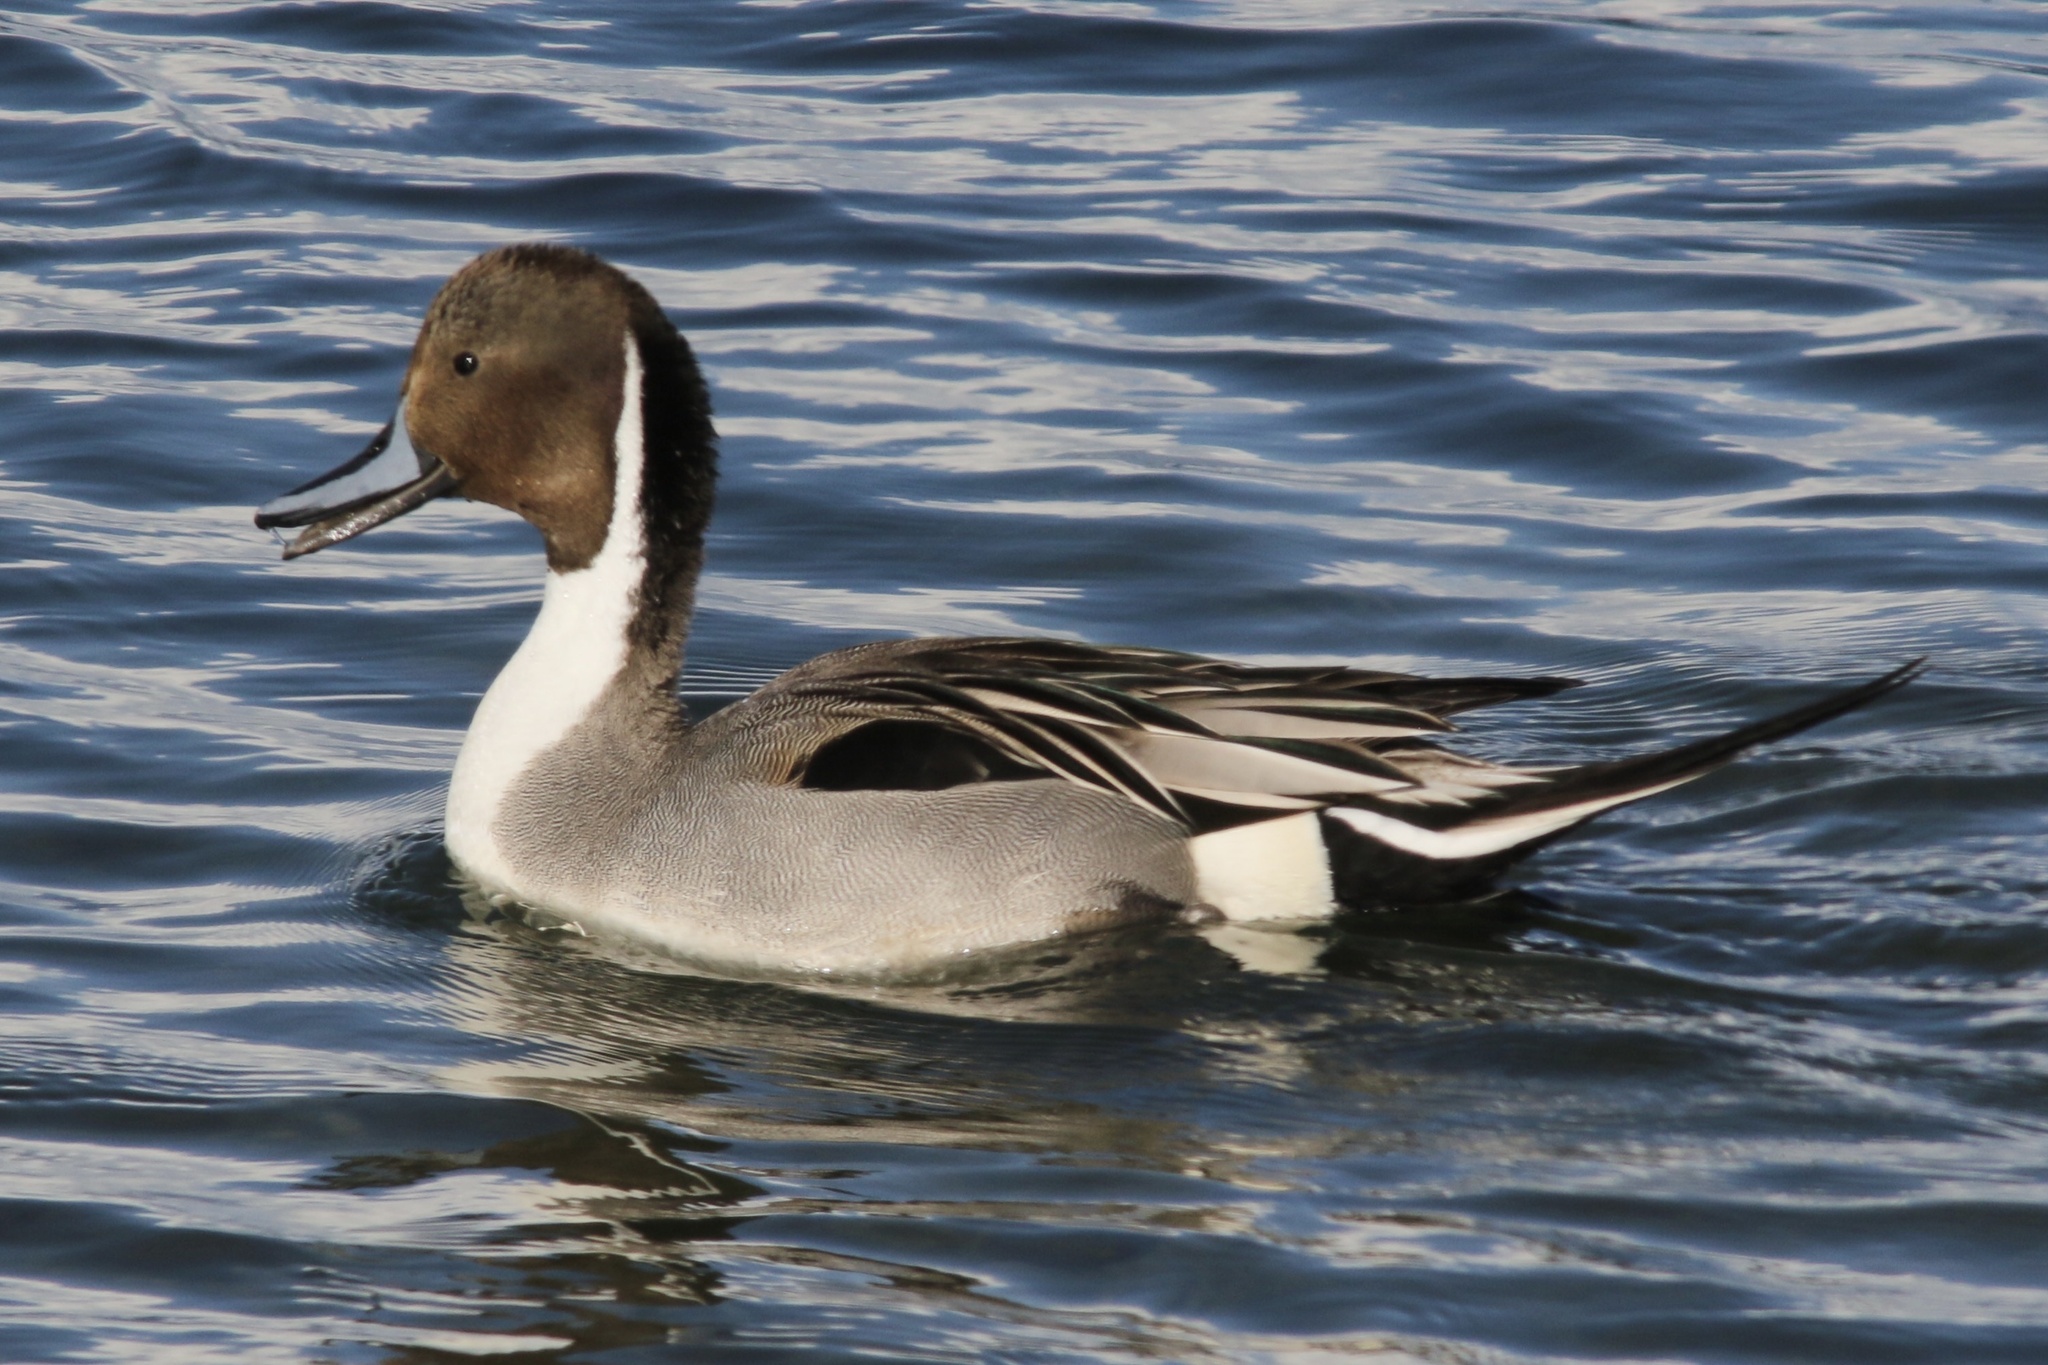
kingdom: Animalia
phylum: Chordata
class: Aves
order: Anseriformes
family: Anatidae
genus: Anas
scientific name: Anas acuta
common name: Northern pintail
